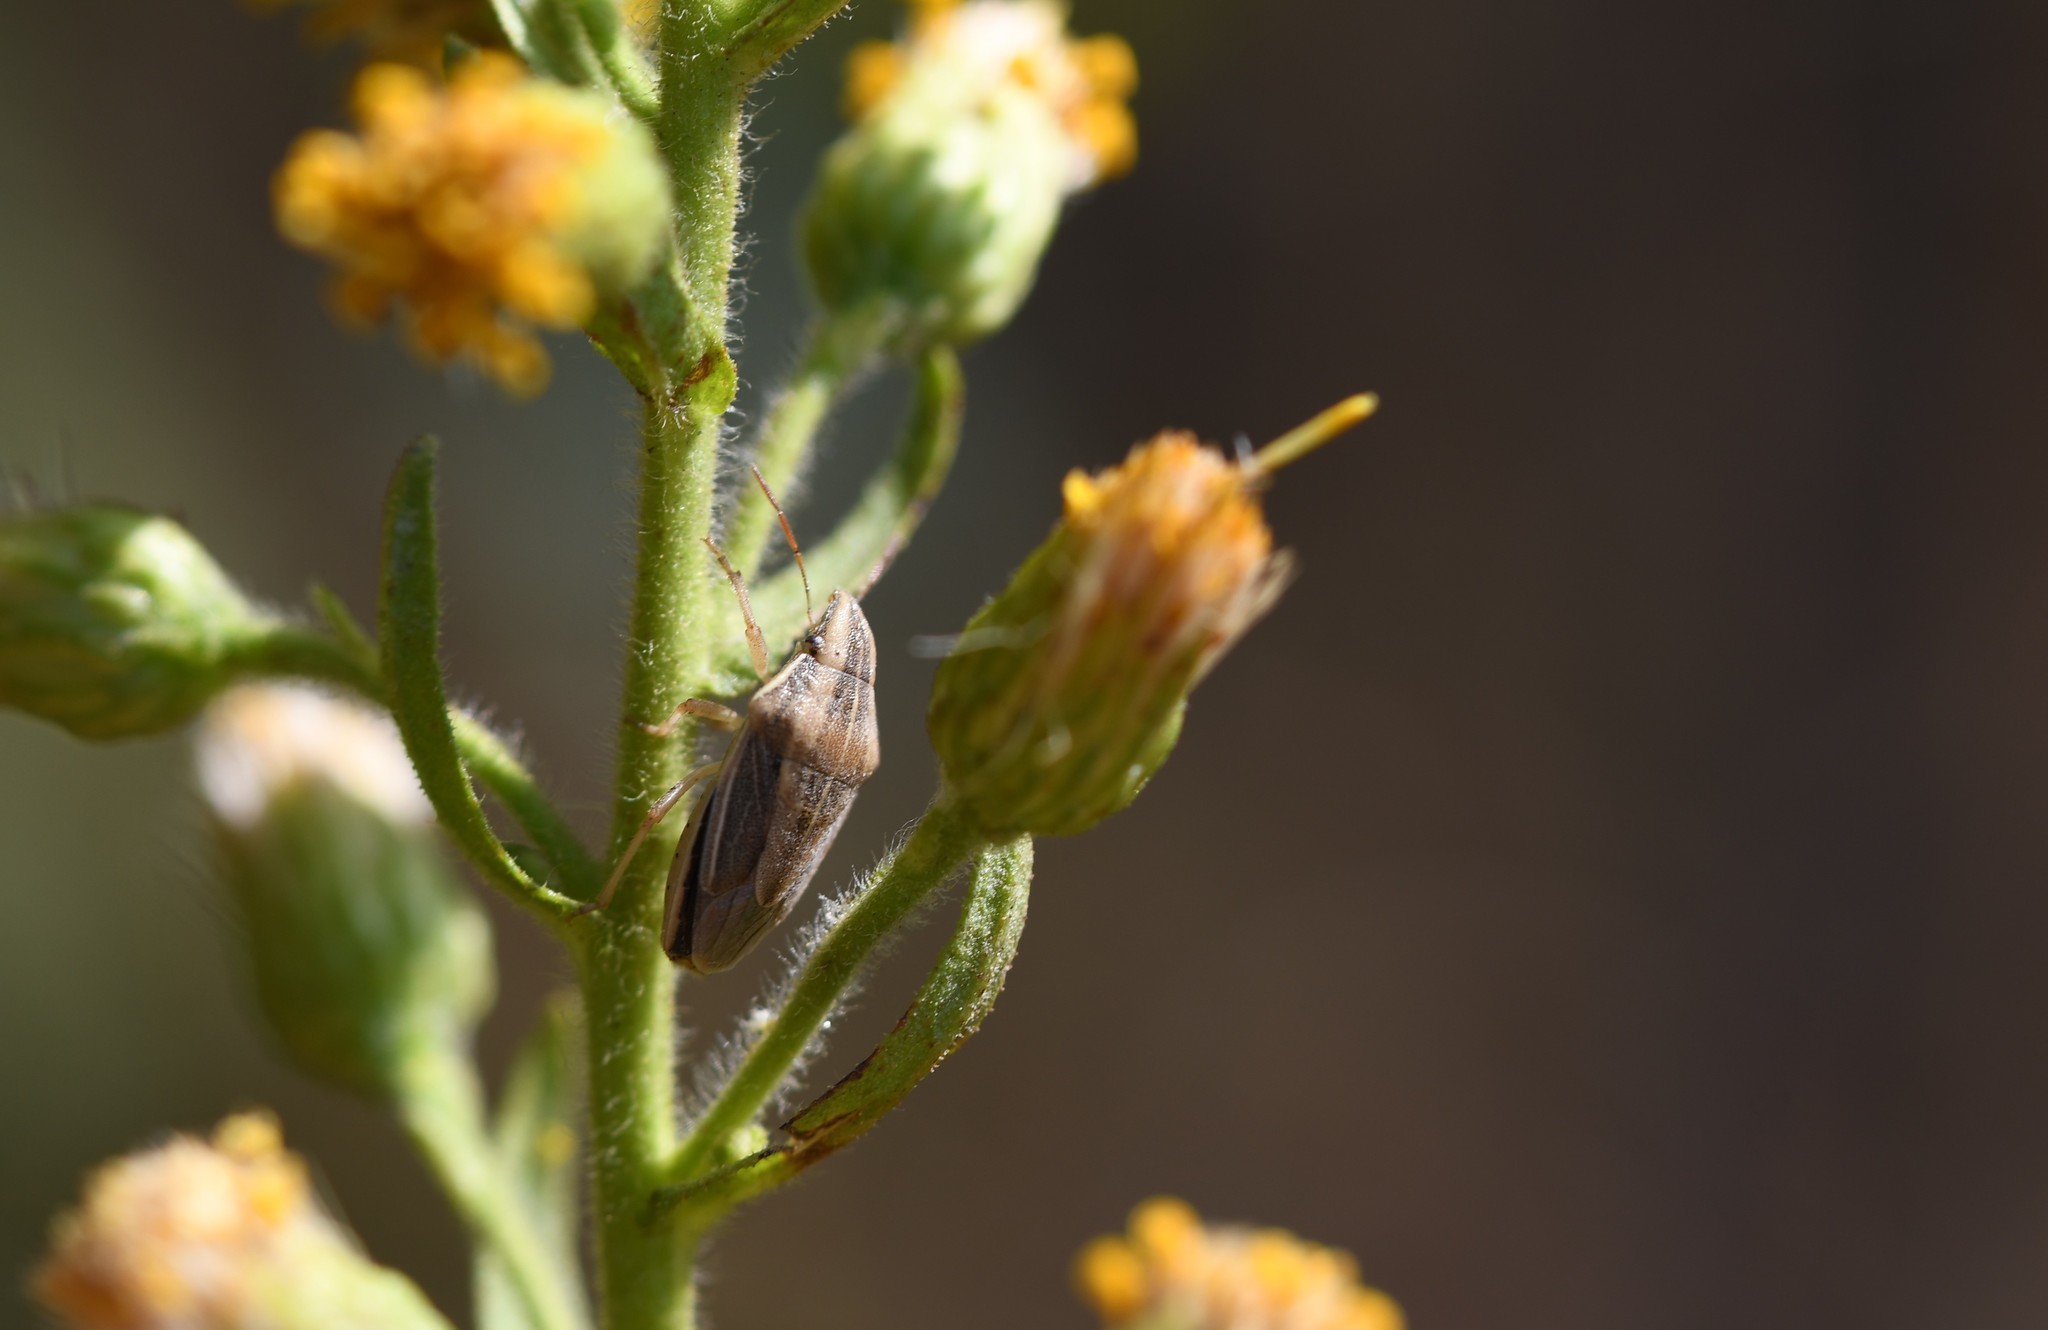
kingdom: Animalia
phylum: Arthropoda
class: Insecta
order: Hemiptera
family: Pentatomidae
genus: Aelia
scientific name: Aelia acuminata
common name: Bishop's mitre
